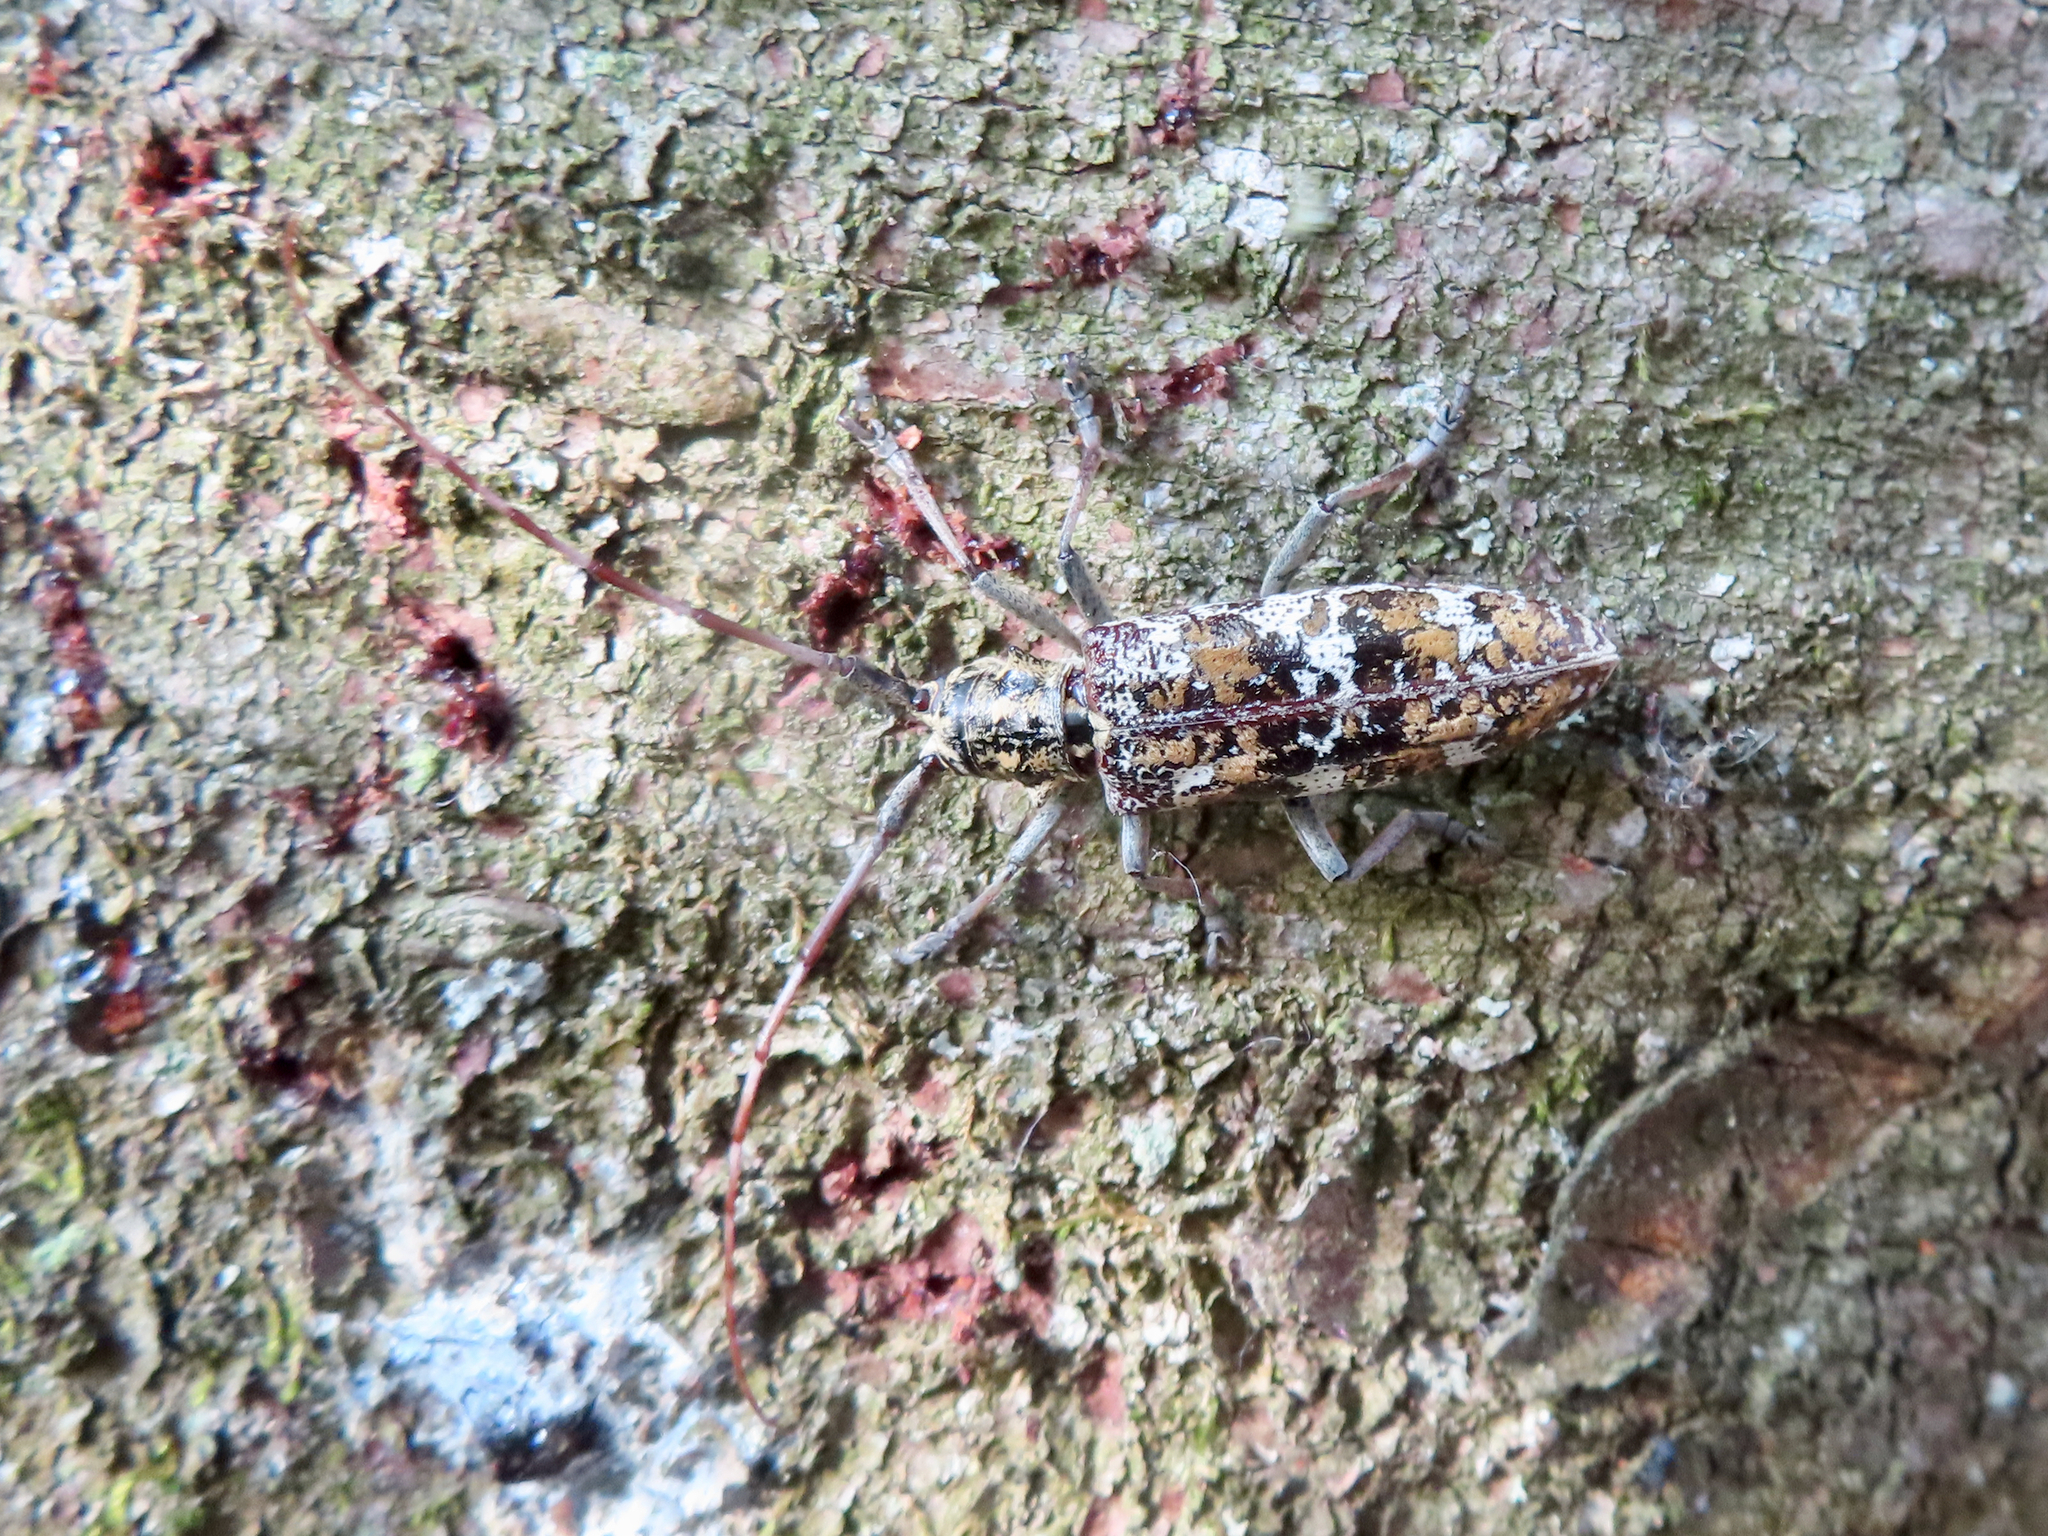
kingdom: Animalia
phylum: Arthropoda
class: Insecta
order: Coleoptera
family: Cerambycidae
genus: Monochamus
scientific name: Monochamus marmorator
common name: Balsam fir sawyer
